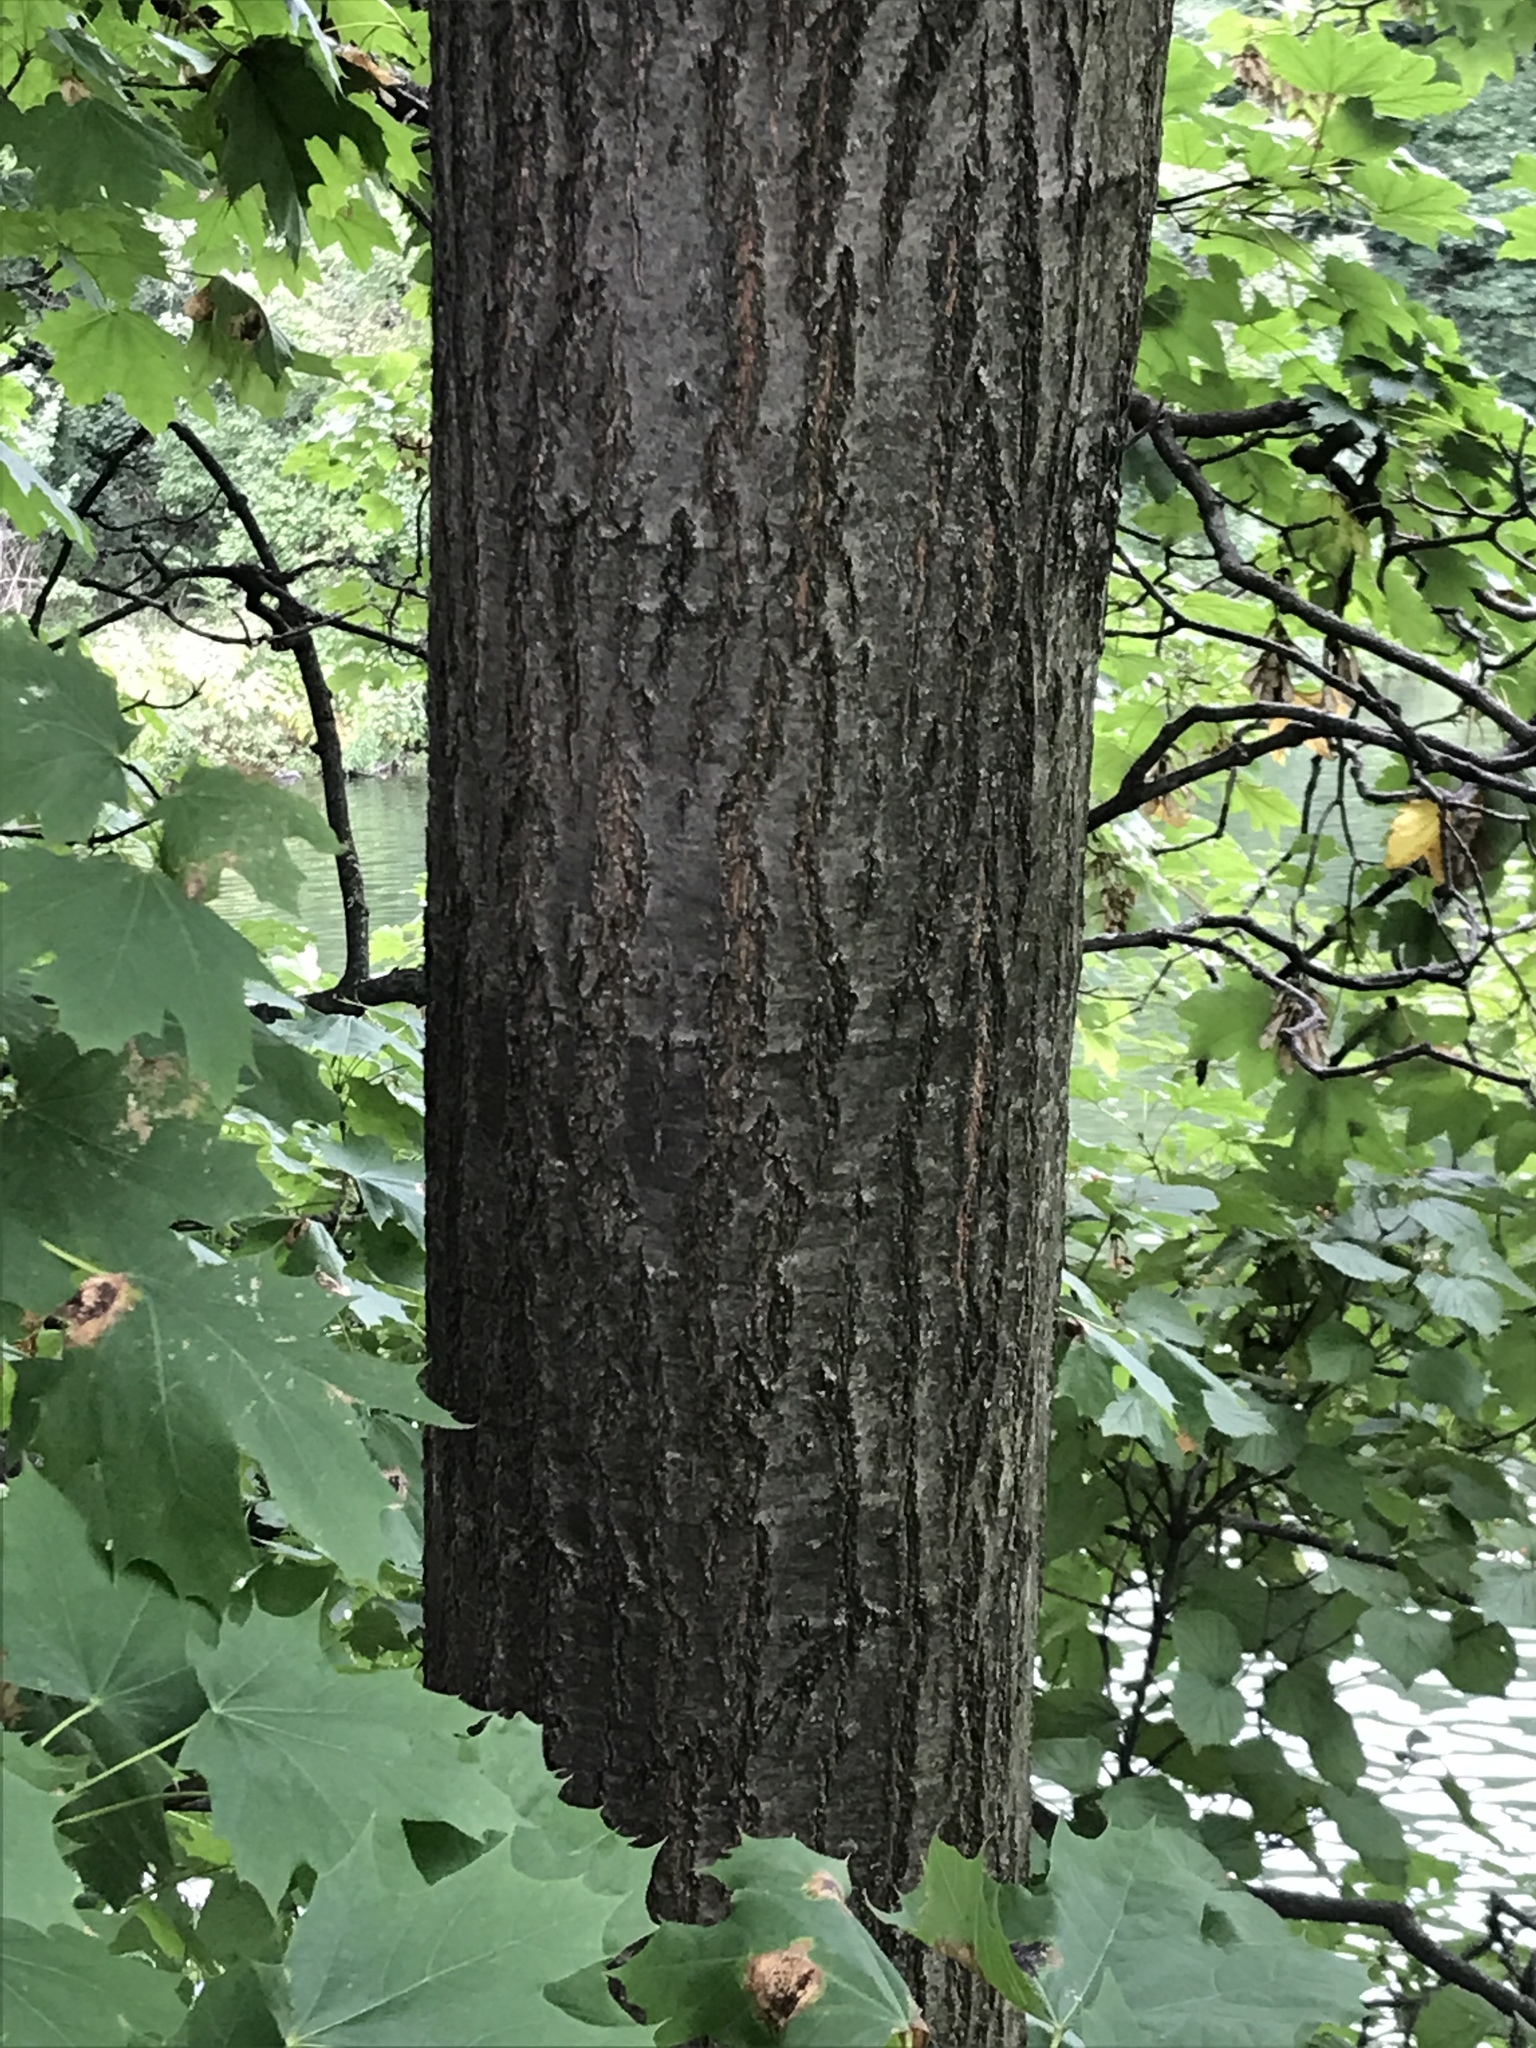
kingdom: Plantae
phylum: Tracheophyta
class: Magnoliopsida
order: Fagales
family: Fagaceae
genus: Quercus
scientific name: Quercus rubra
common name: Red oak
